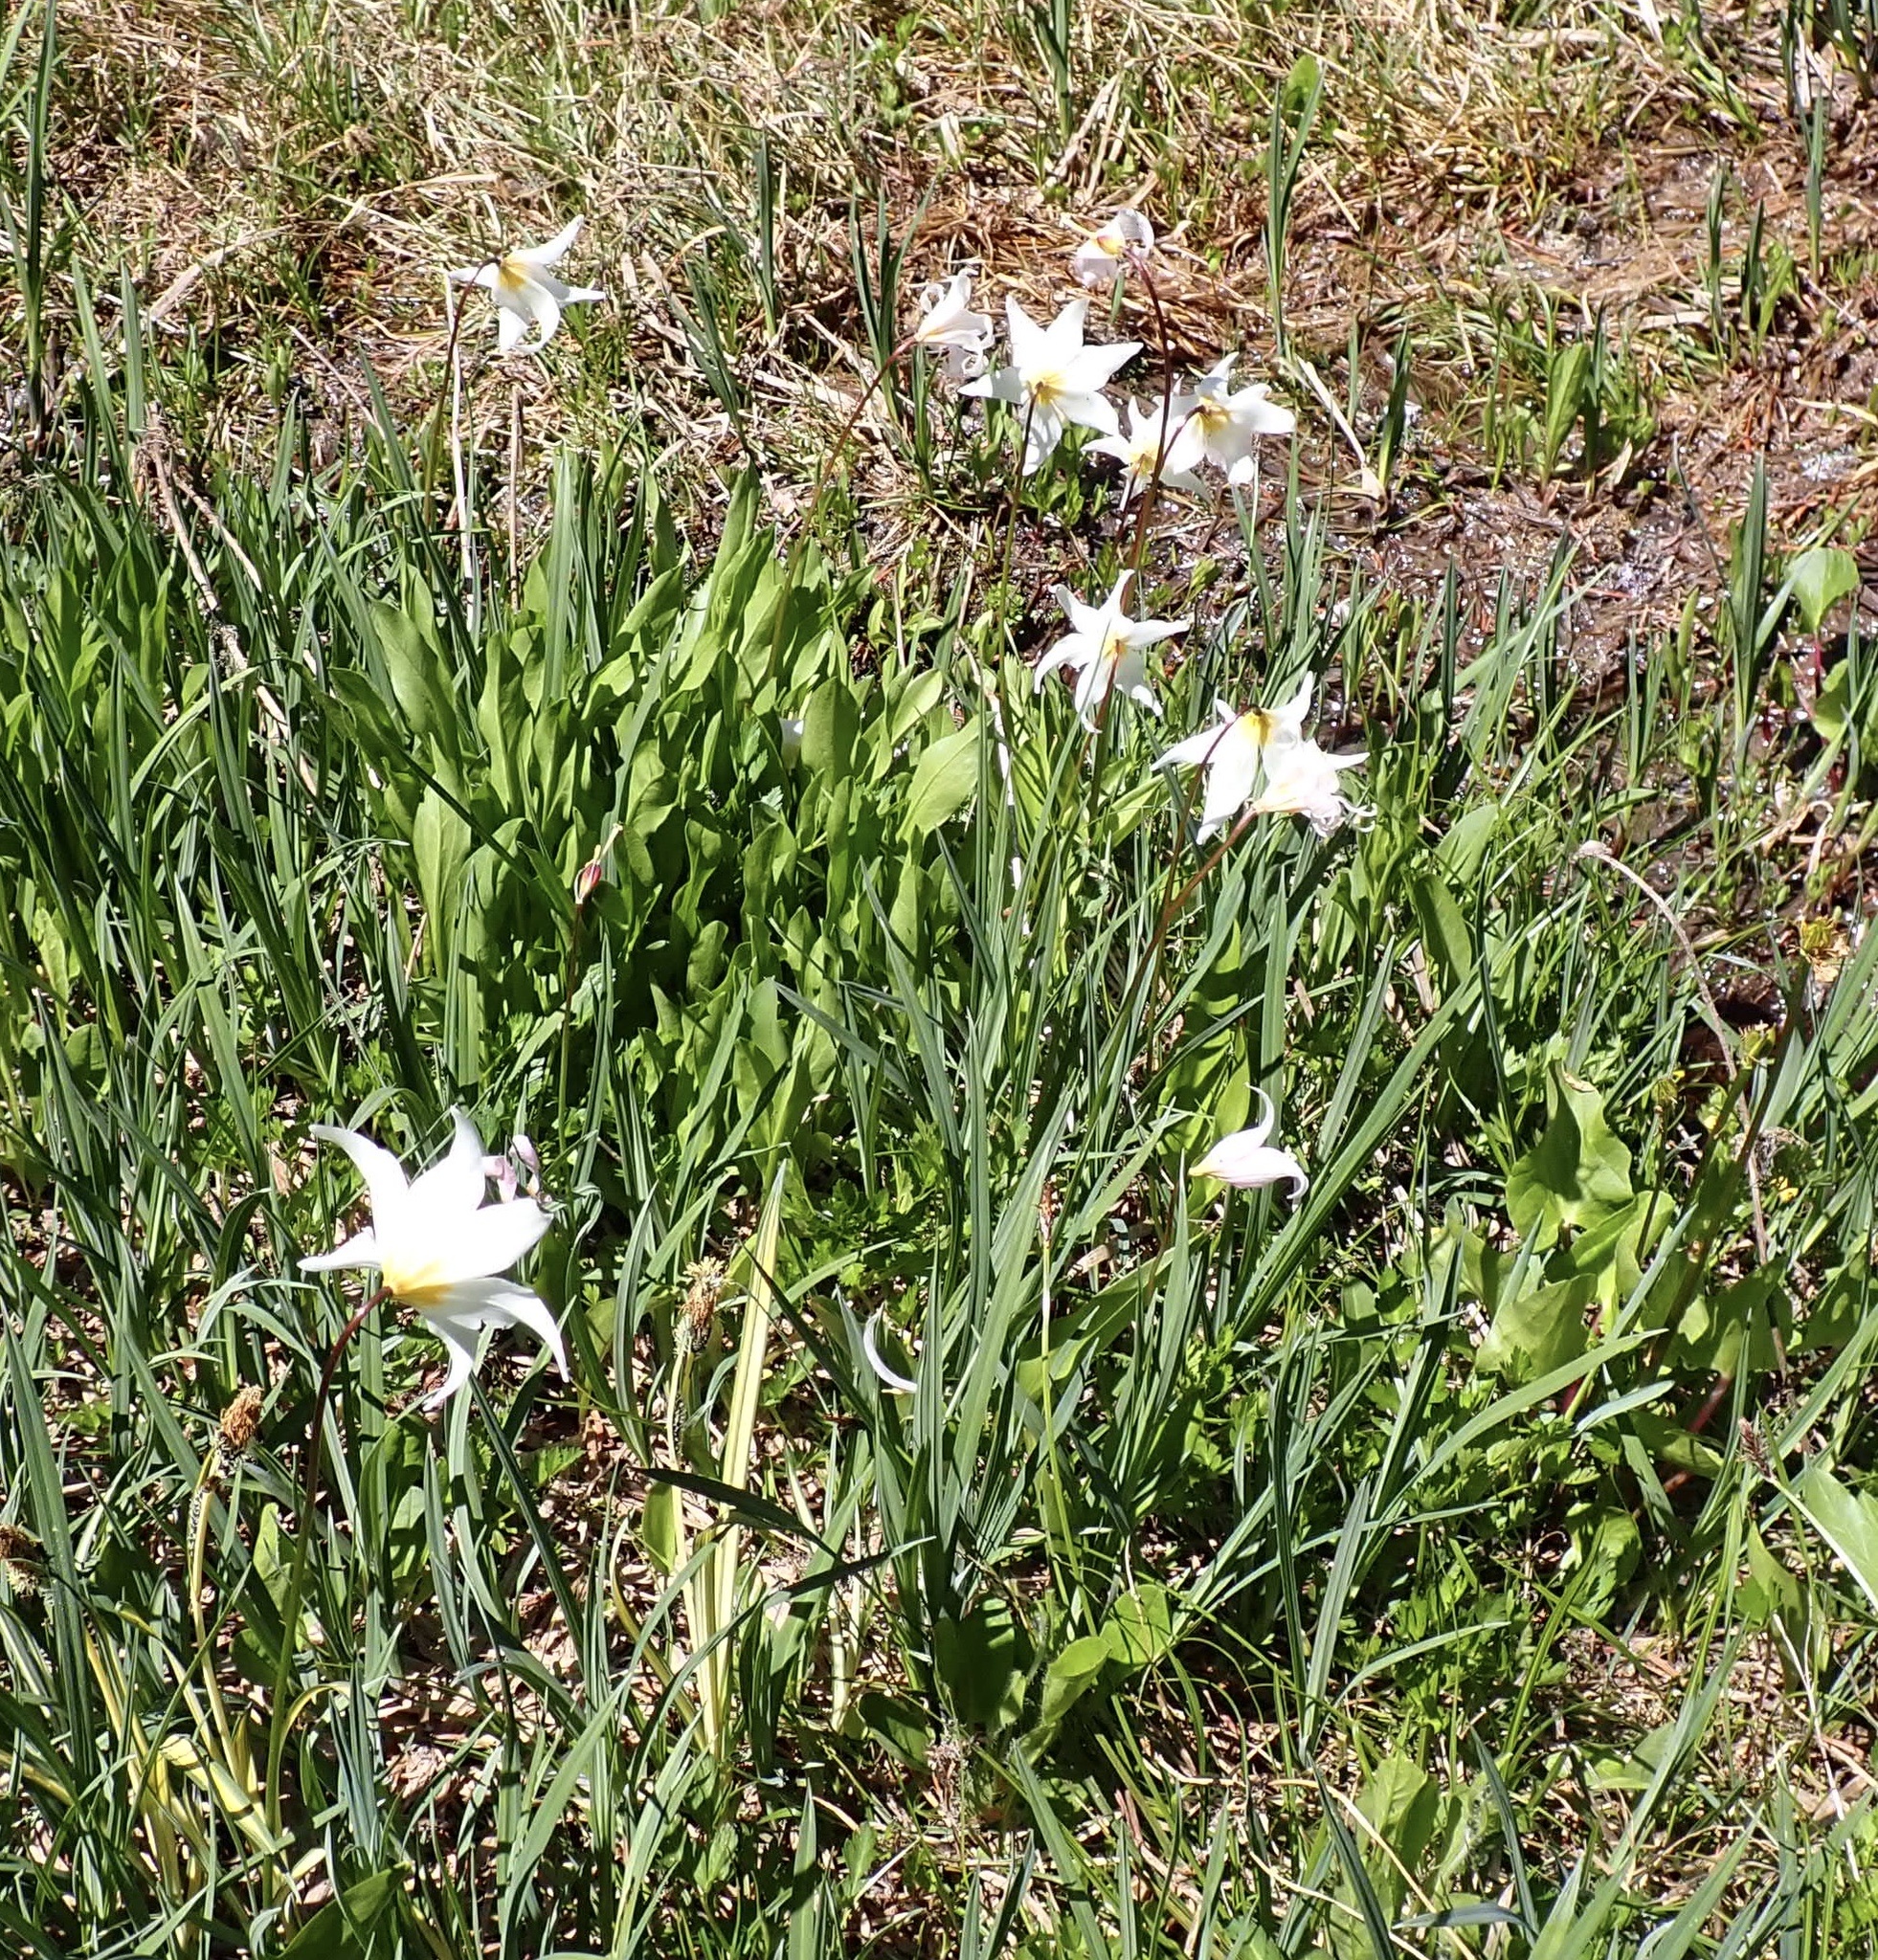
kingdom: Plantae
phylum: Tracheophyta
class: Liliopsida
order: Liliales
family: Liliaceae
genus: Erythronium
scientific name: Erythronium montanum
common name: Avalanche lily
